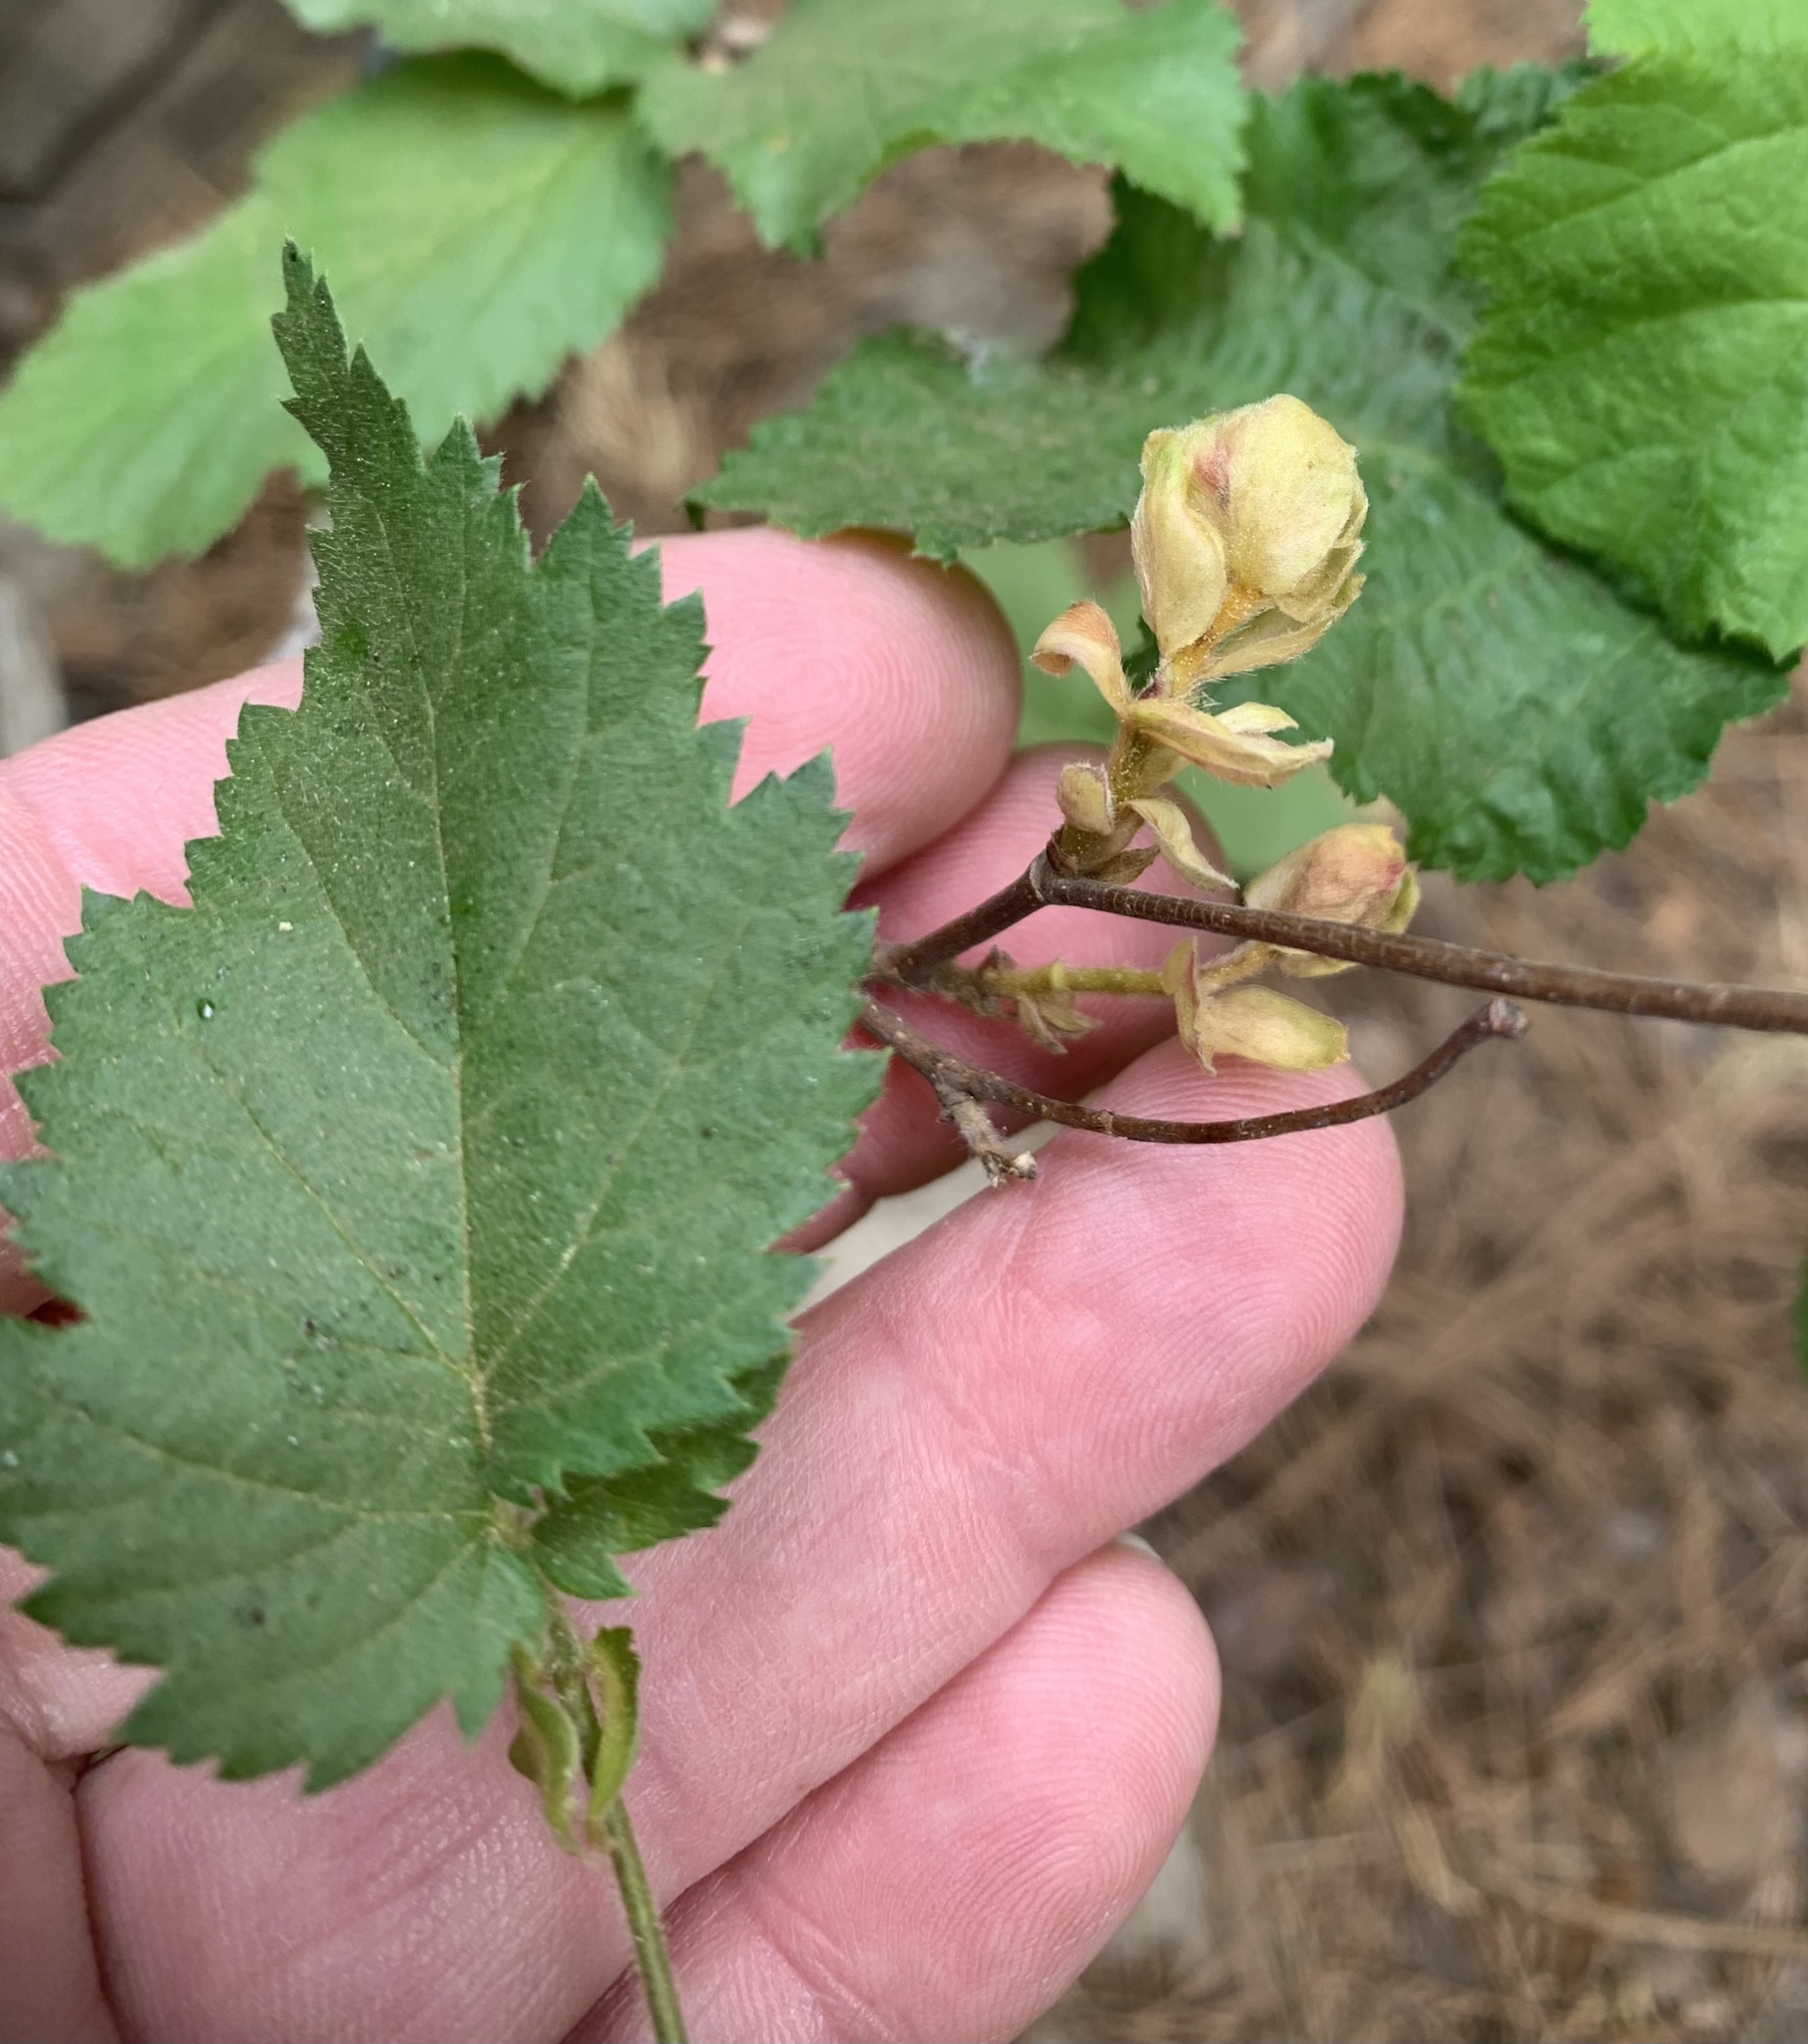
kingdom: Plantae
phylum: Tracheophyta
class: Magnoliopsida
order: Fagales
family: Betulaceae
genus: Corylus
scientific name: Corylus cornuta
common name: Beaked hazel
